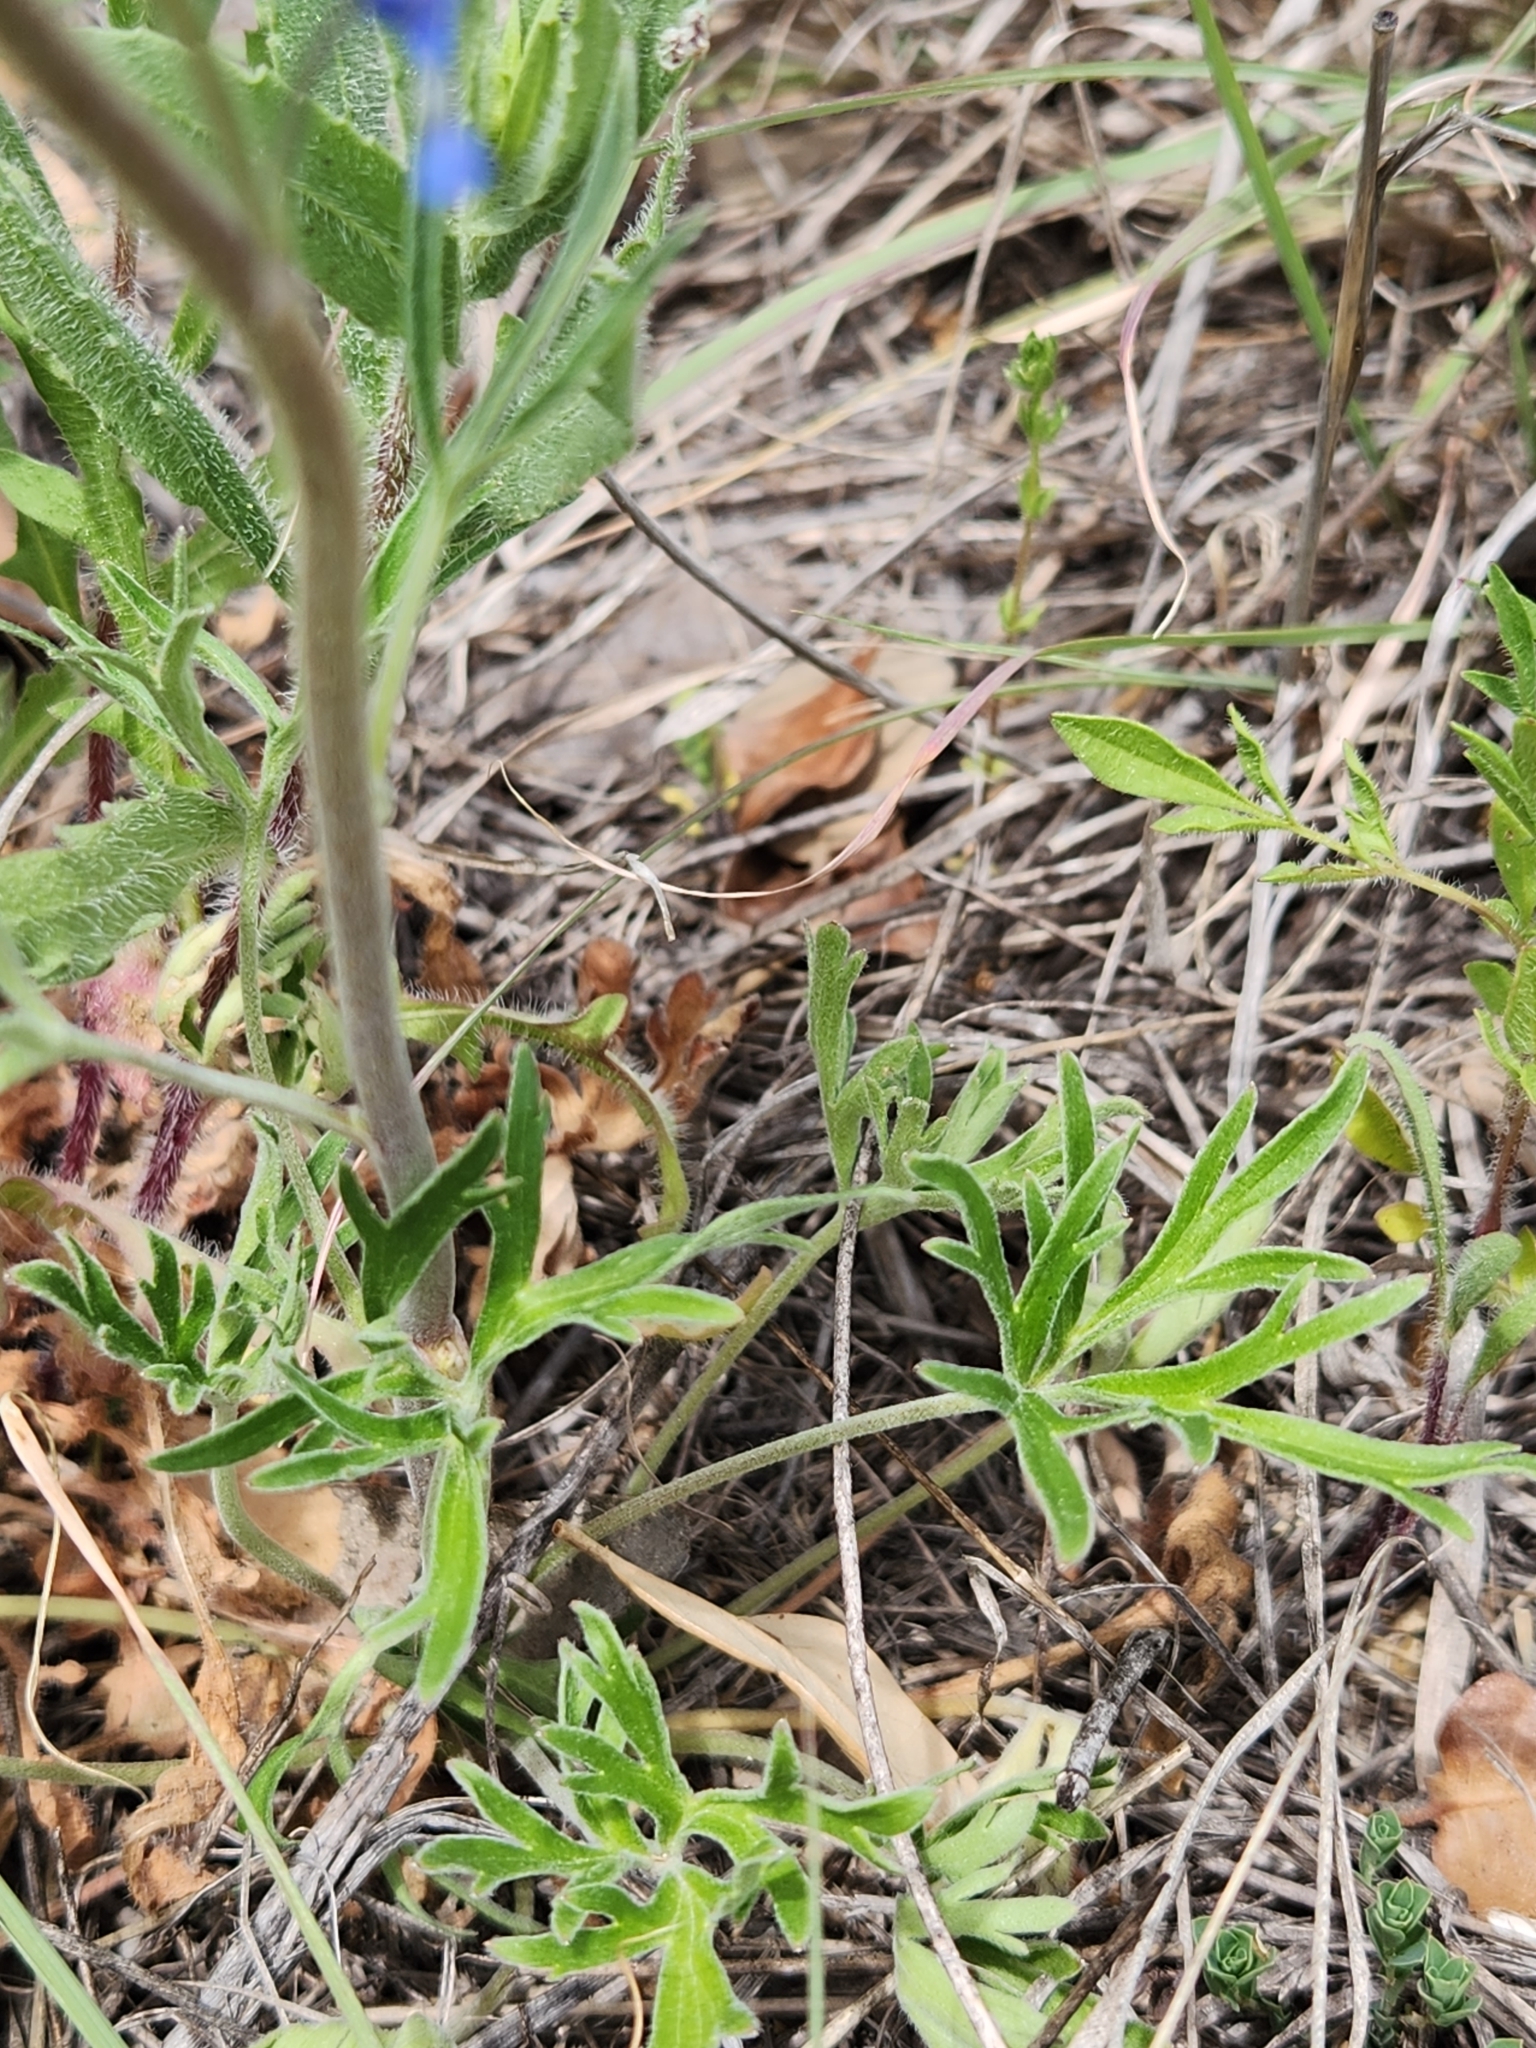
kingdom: Plantae
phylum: Tracheophyta
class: Magnoliopsida
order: Ranunculales
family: Ranunculaceae
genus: Delphinium
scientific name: Delphinium carolinianum
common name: Carolina larkspur
